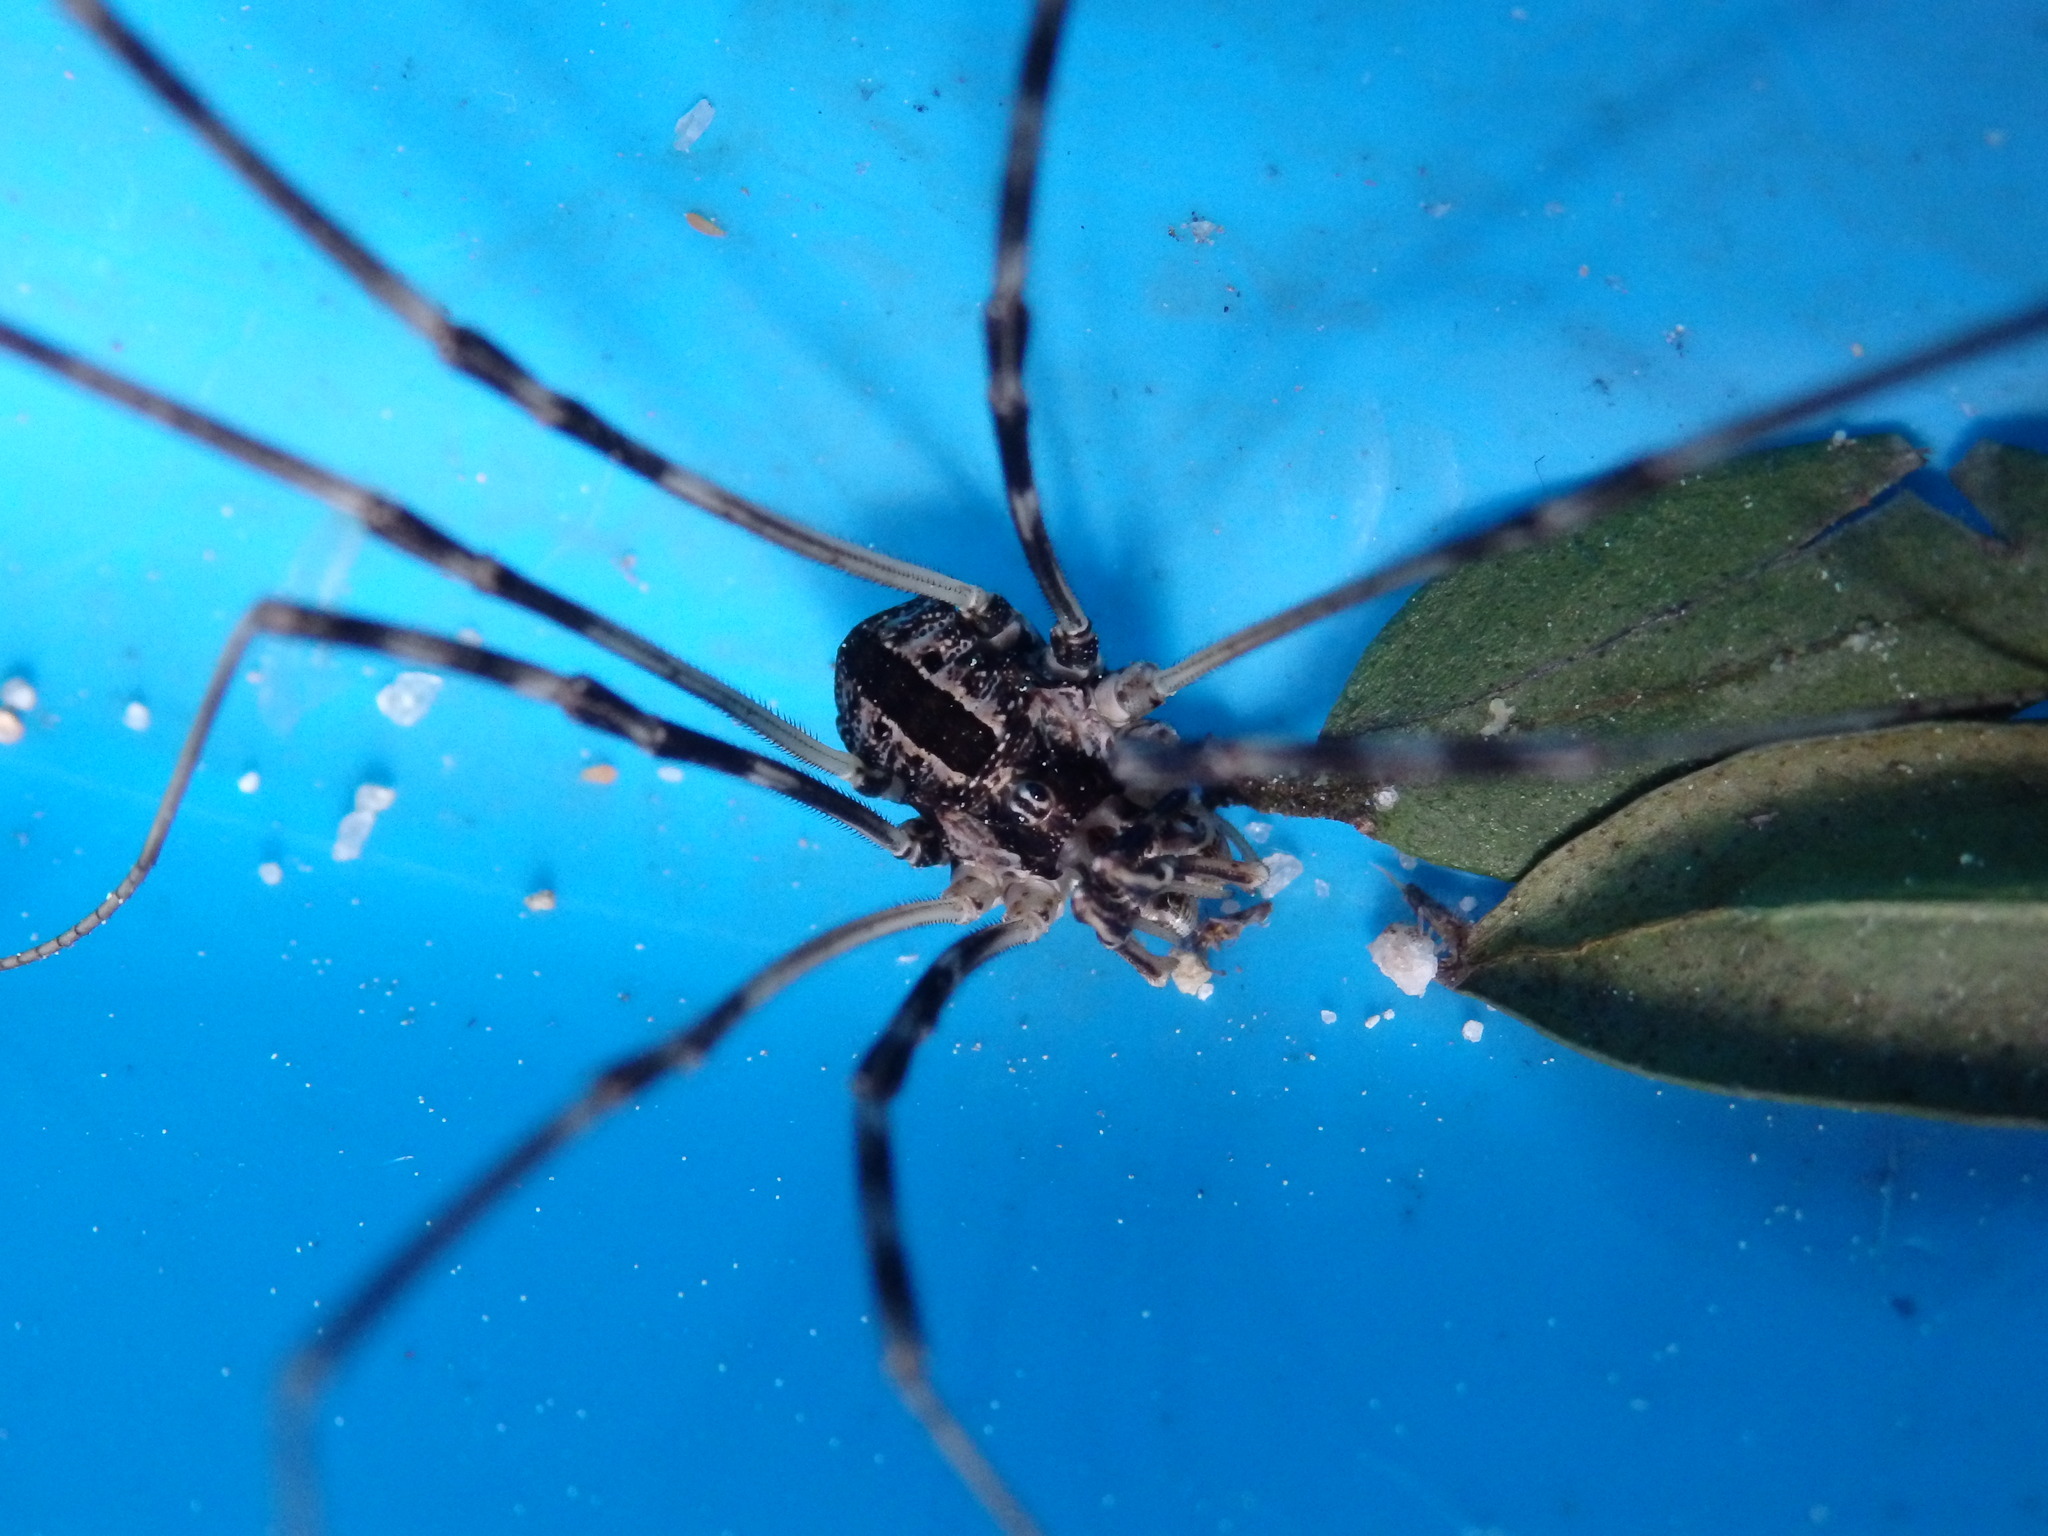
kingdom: Animalia
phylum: Arthropoda
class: Arachnida
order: Opiliones
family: Phalangiidae
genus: Dicranopalpus
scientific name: Dicranopalpus pulchellus
